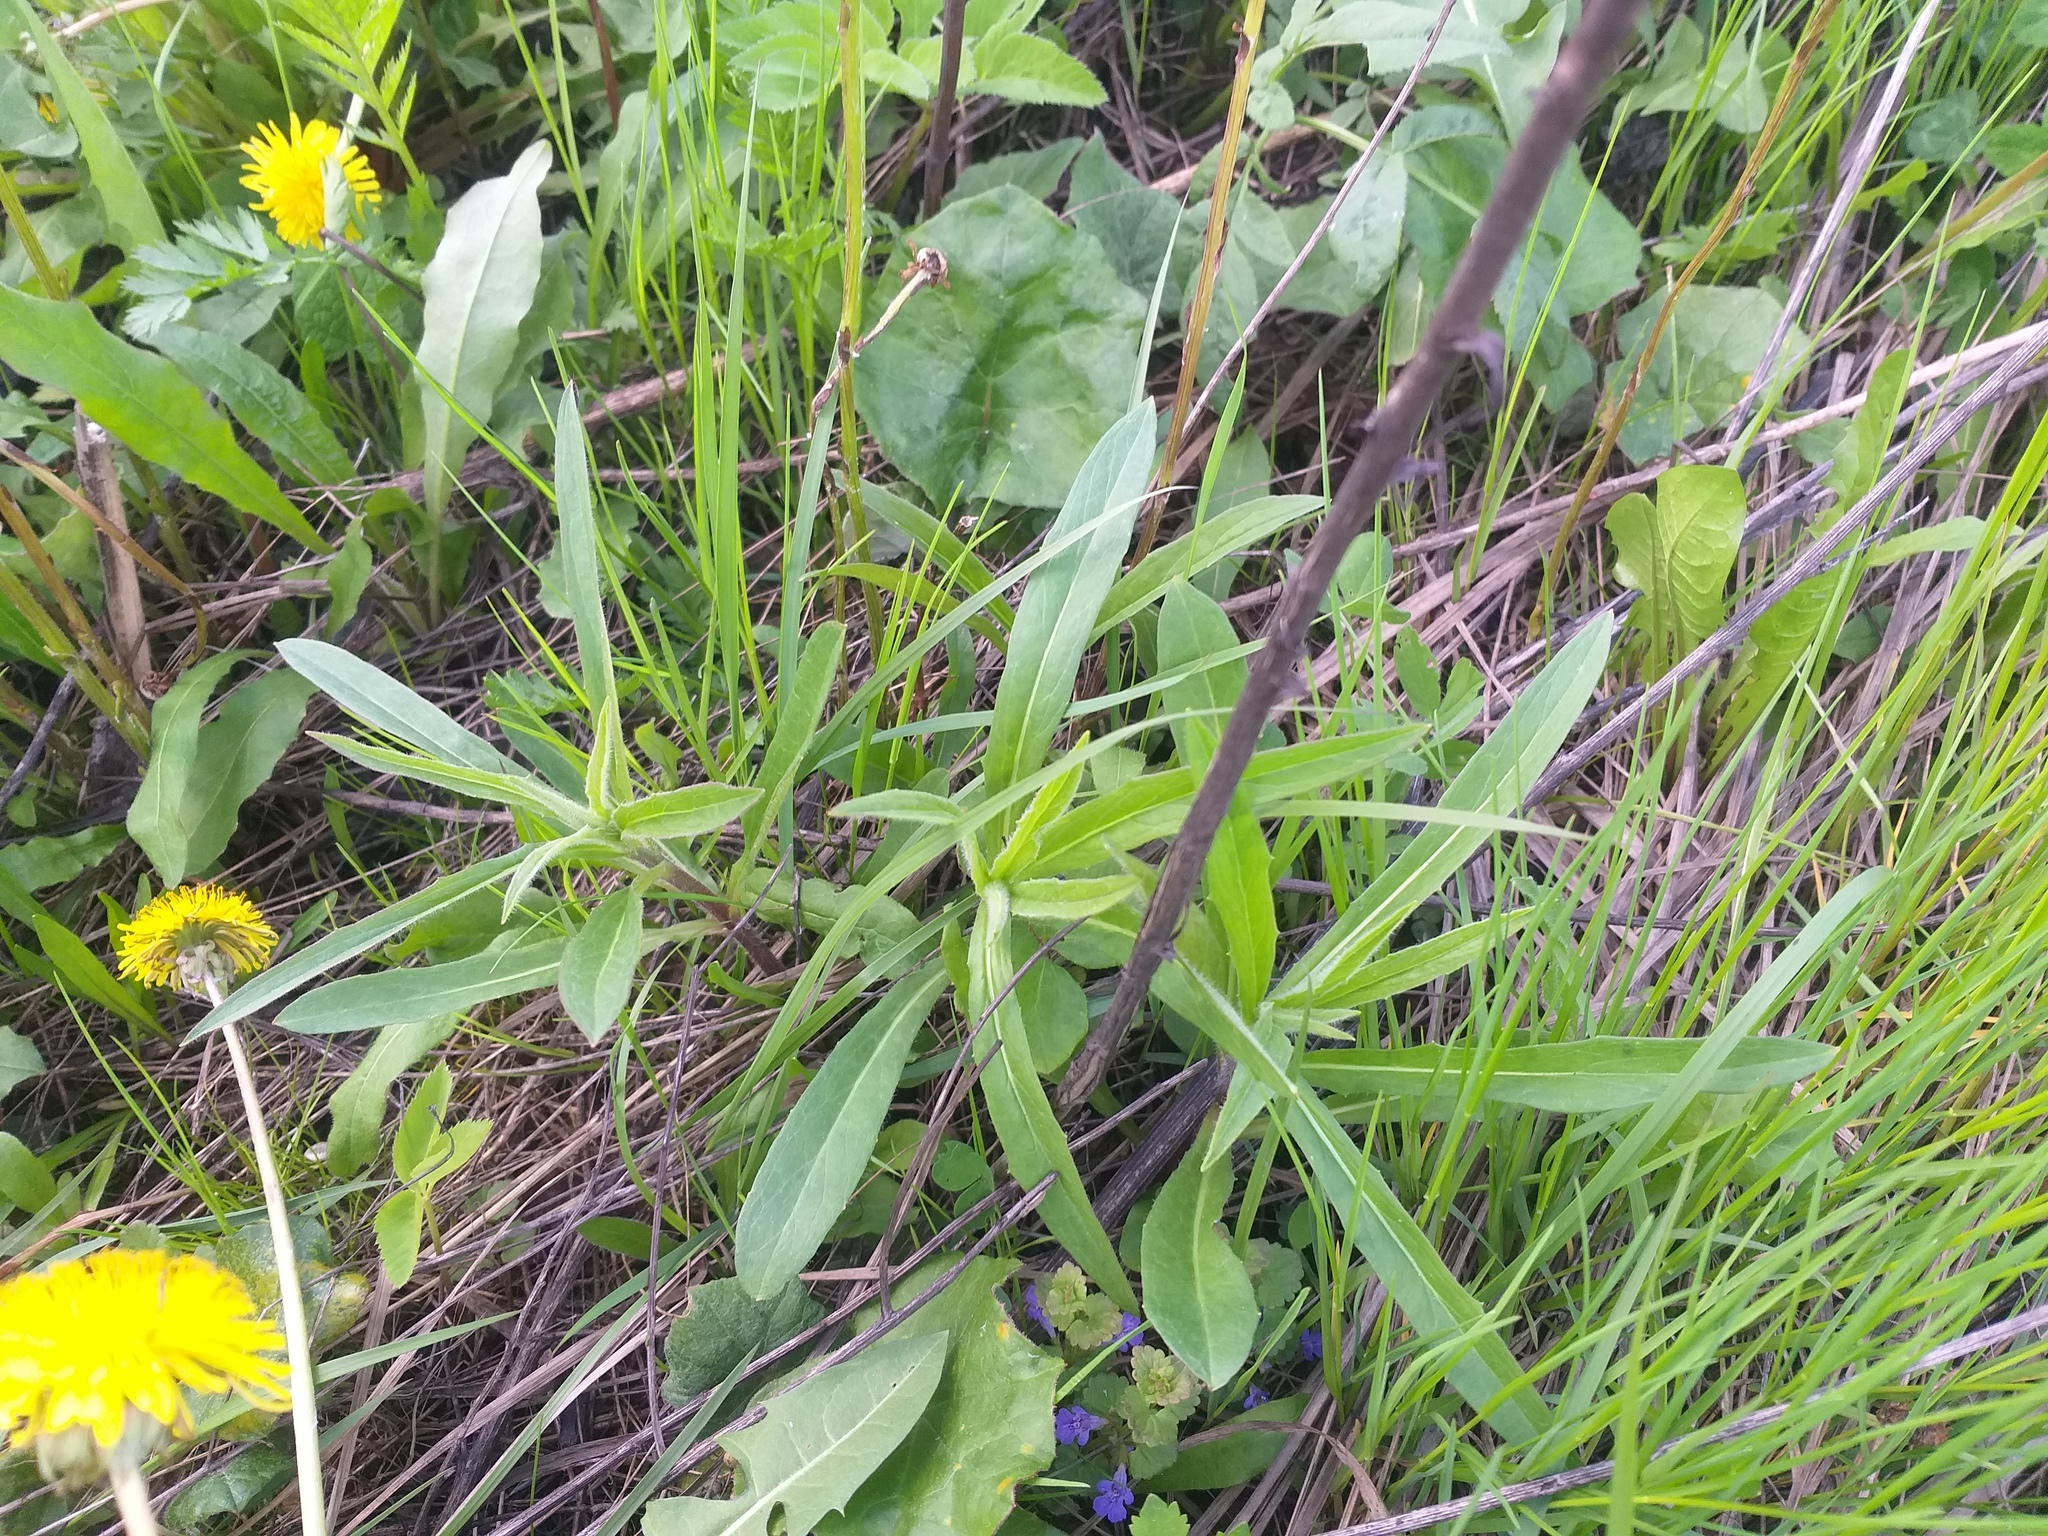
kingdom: Plantae
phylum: Tracheophyta
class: Magnoliopsida
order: Asterales
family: Asteraceae
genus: Hieracium
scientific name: Hieracium umbellatum
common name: Northern hawkweed
